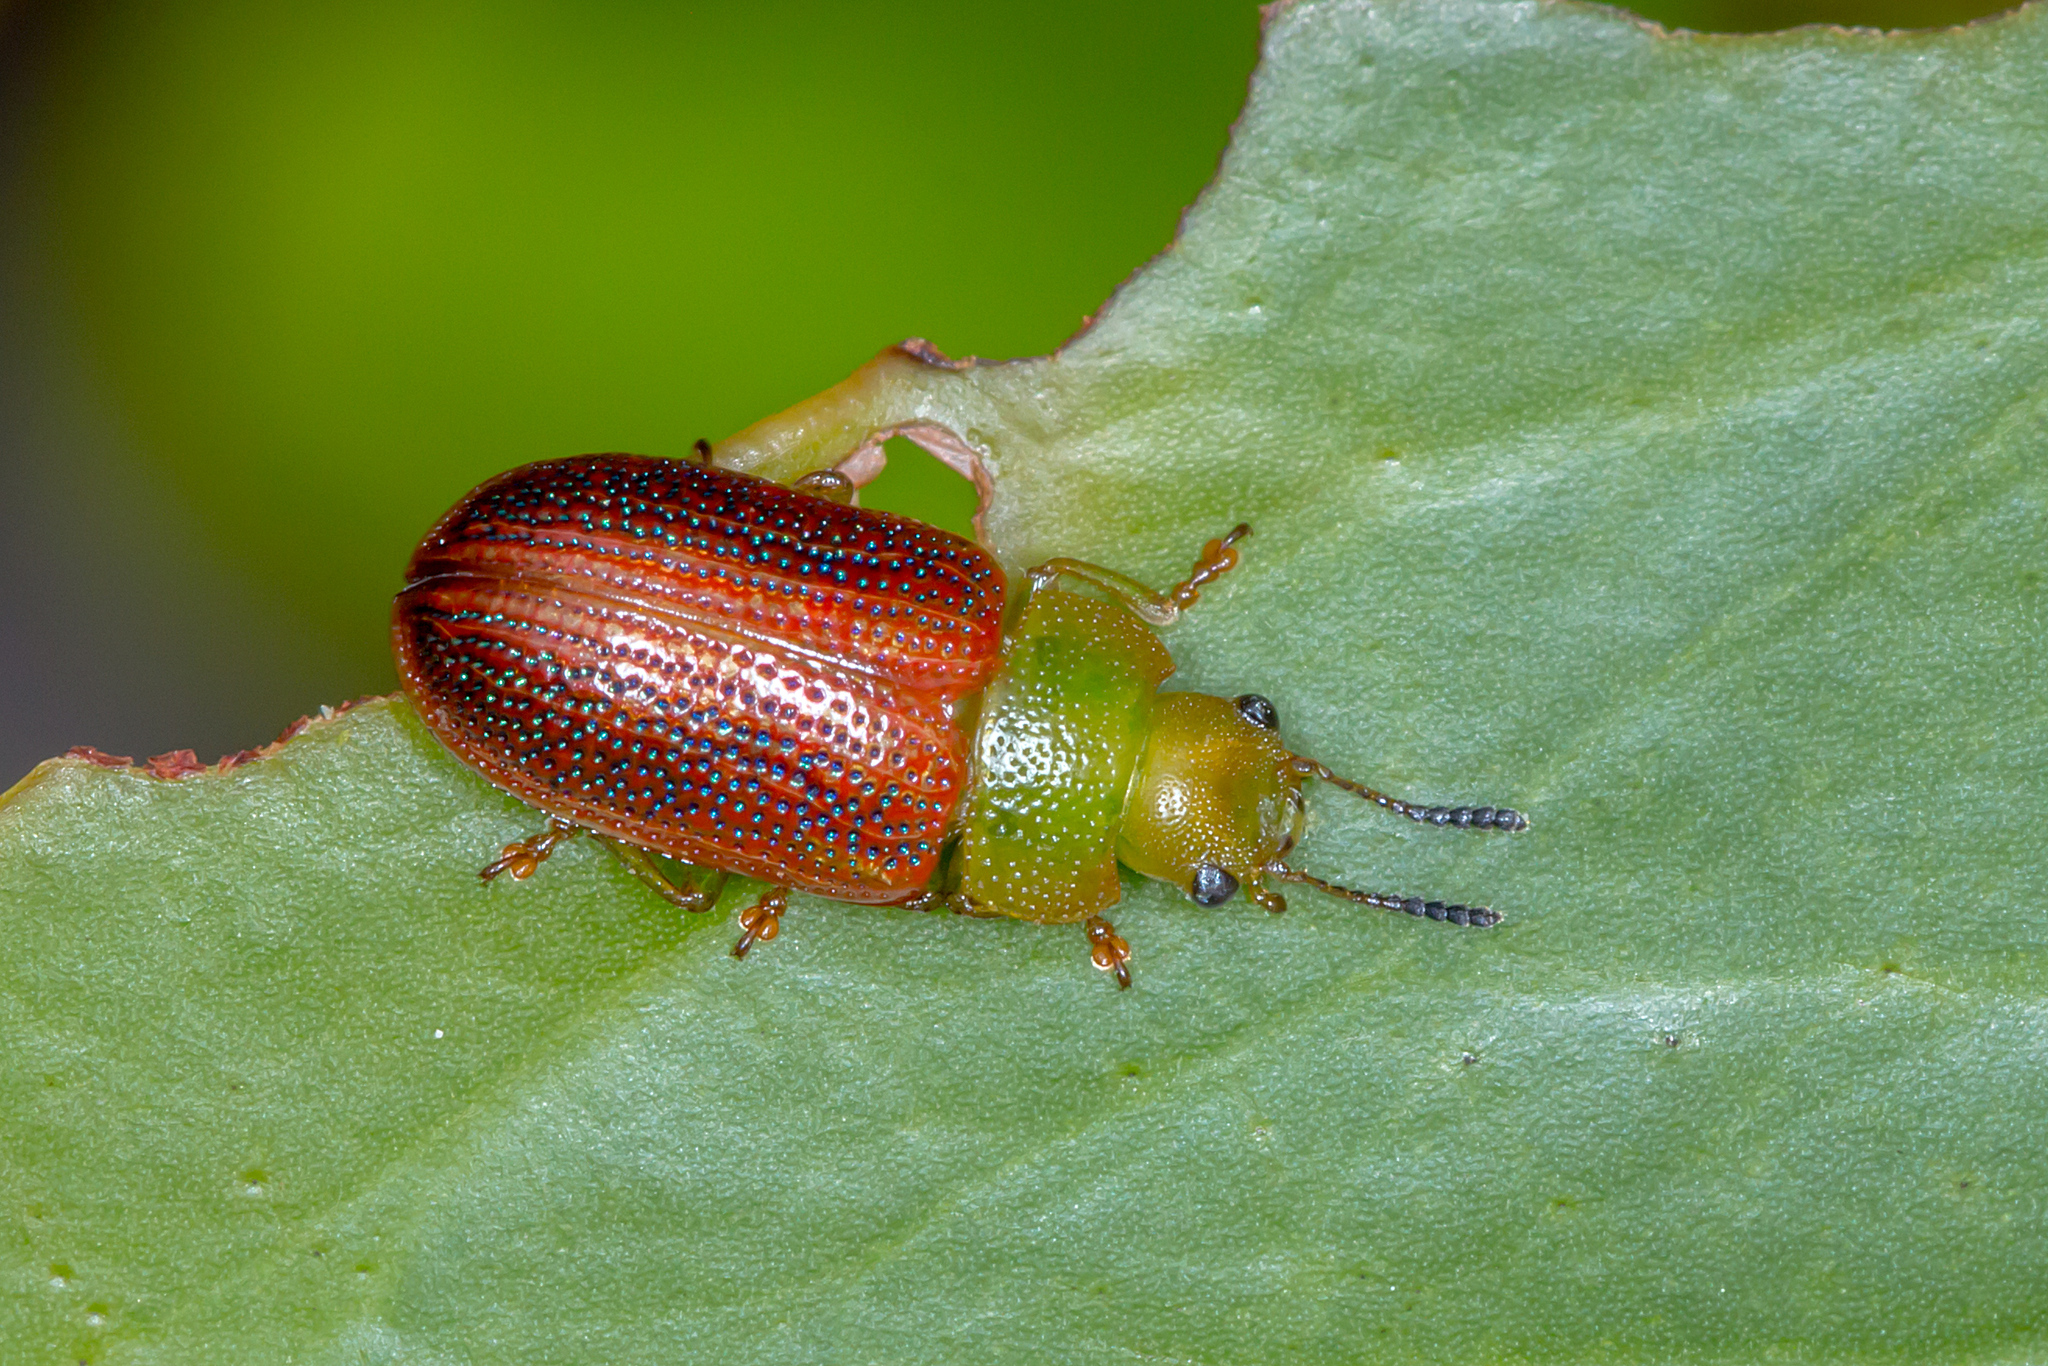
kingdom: Animalia
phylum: Arthropoda
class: Insecta
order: Coleoptera
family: Chrysomelidae
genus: Calomela
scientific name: Calomela
